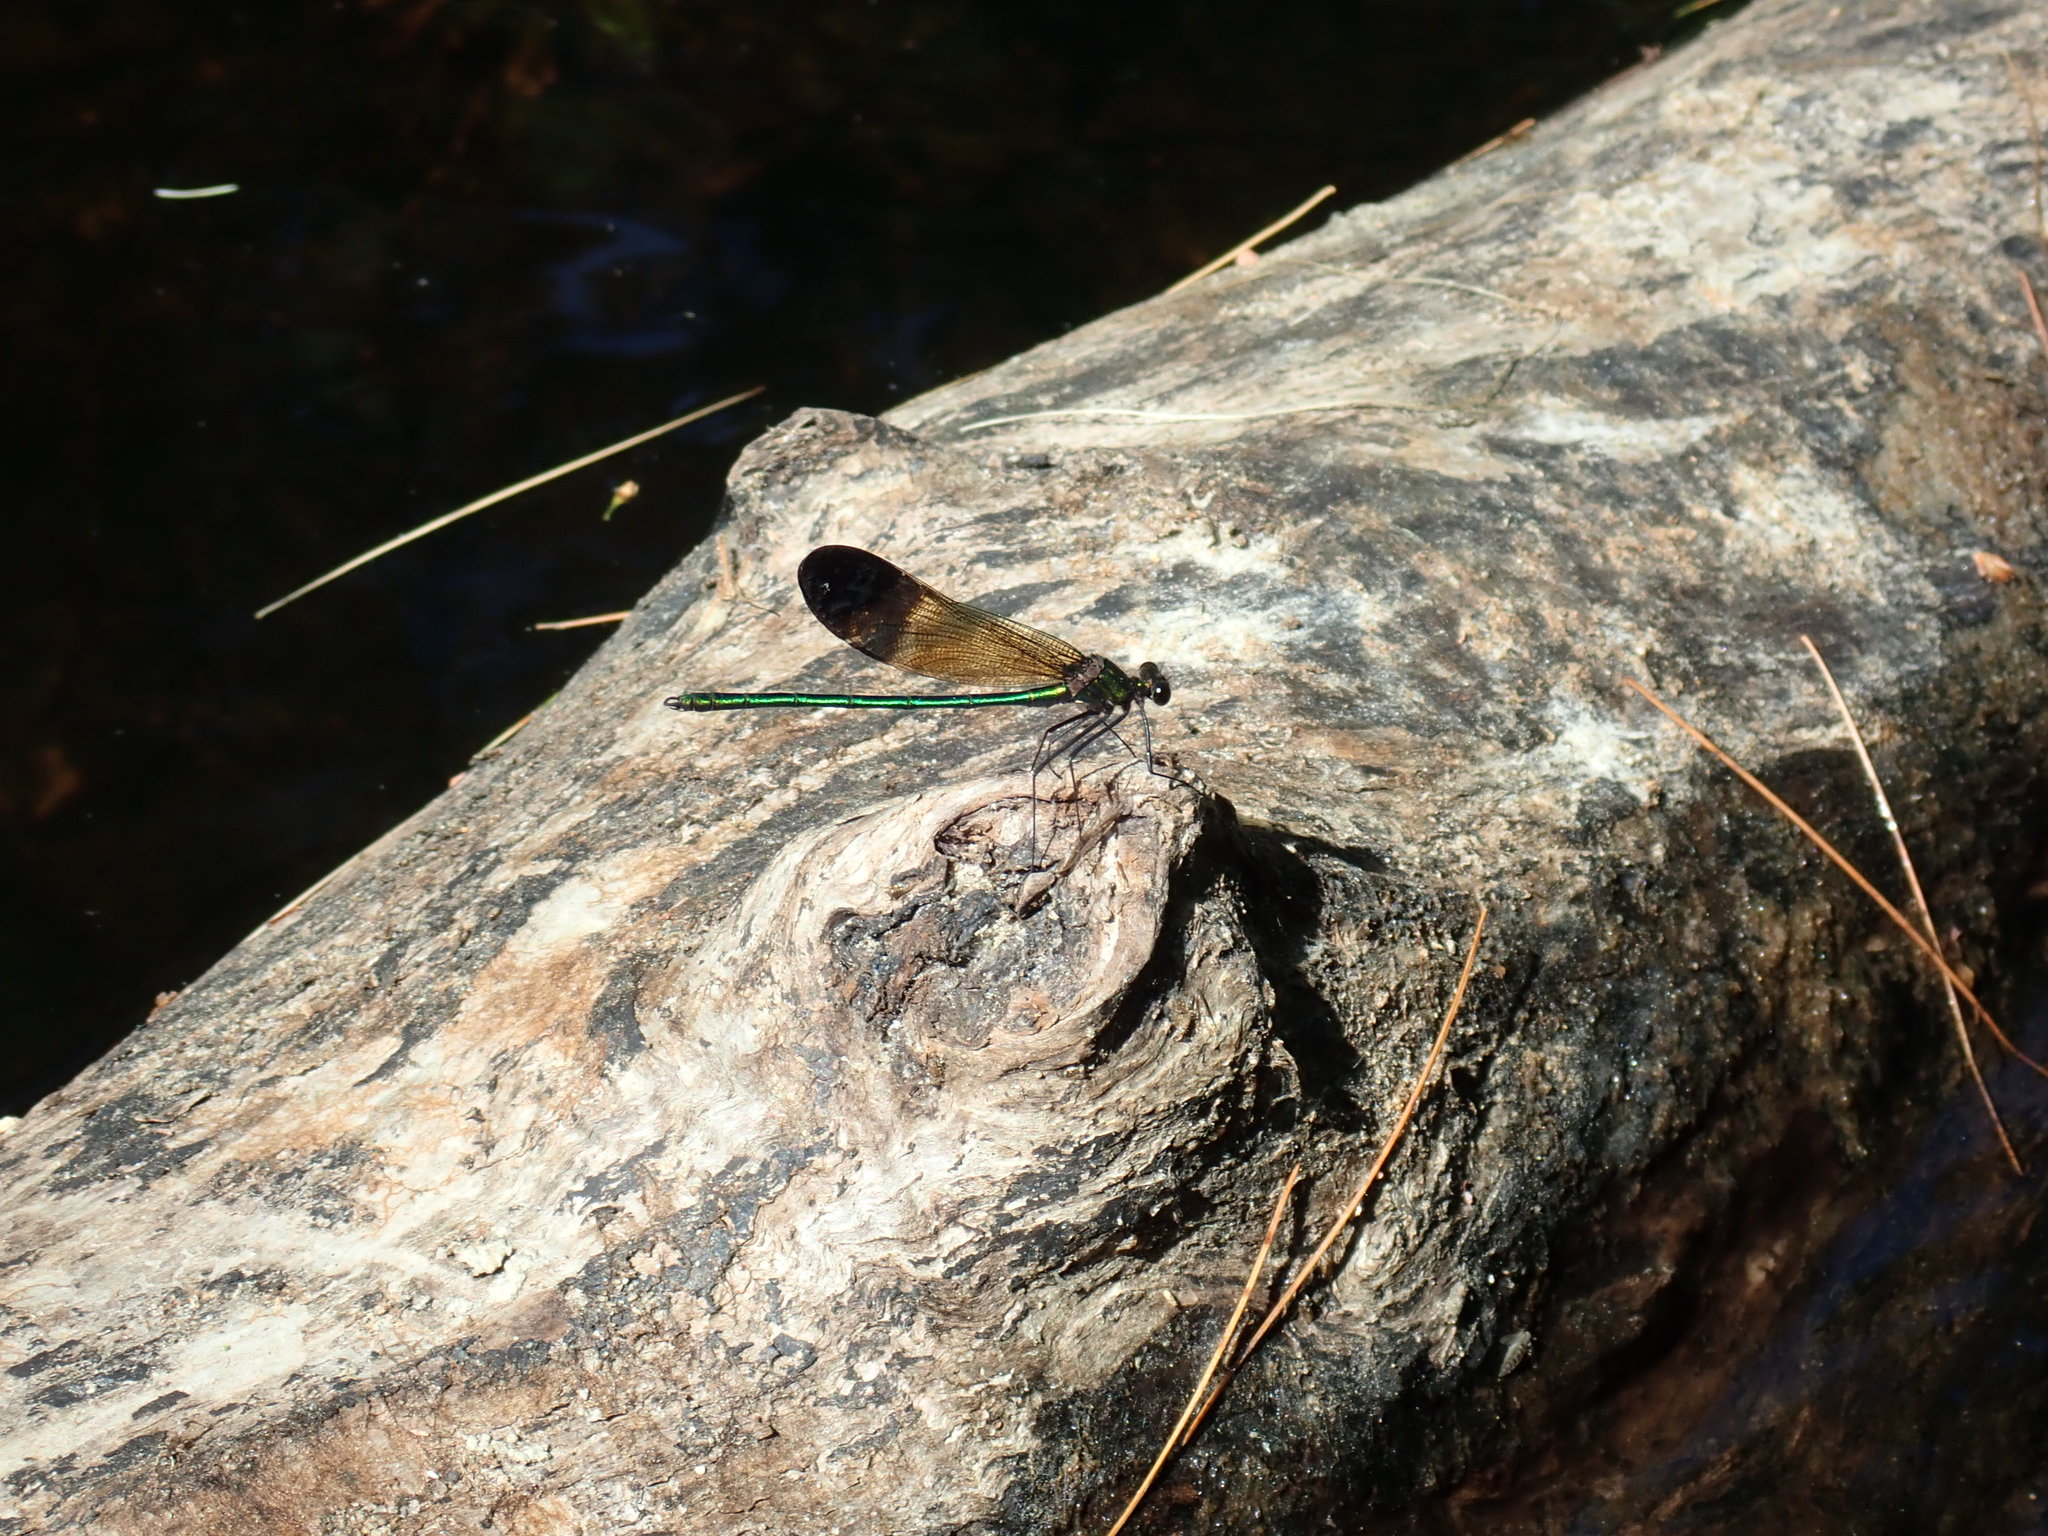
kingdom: Animalia
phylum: Arthropoda
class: Insecta
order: Odonata
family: Calopterygidae
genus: Calopteryx
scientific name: Calopteryx aequabilis
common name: River jewelwing
